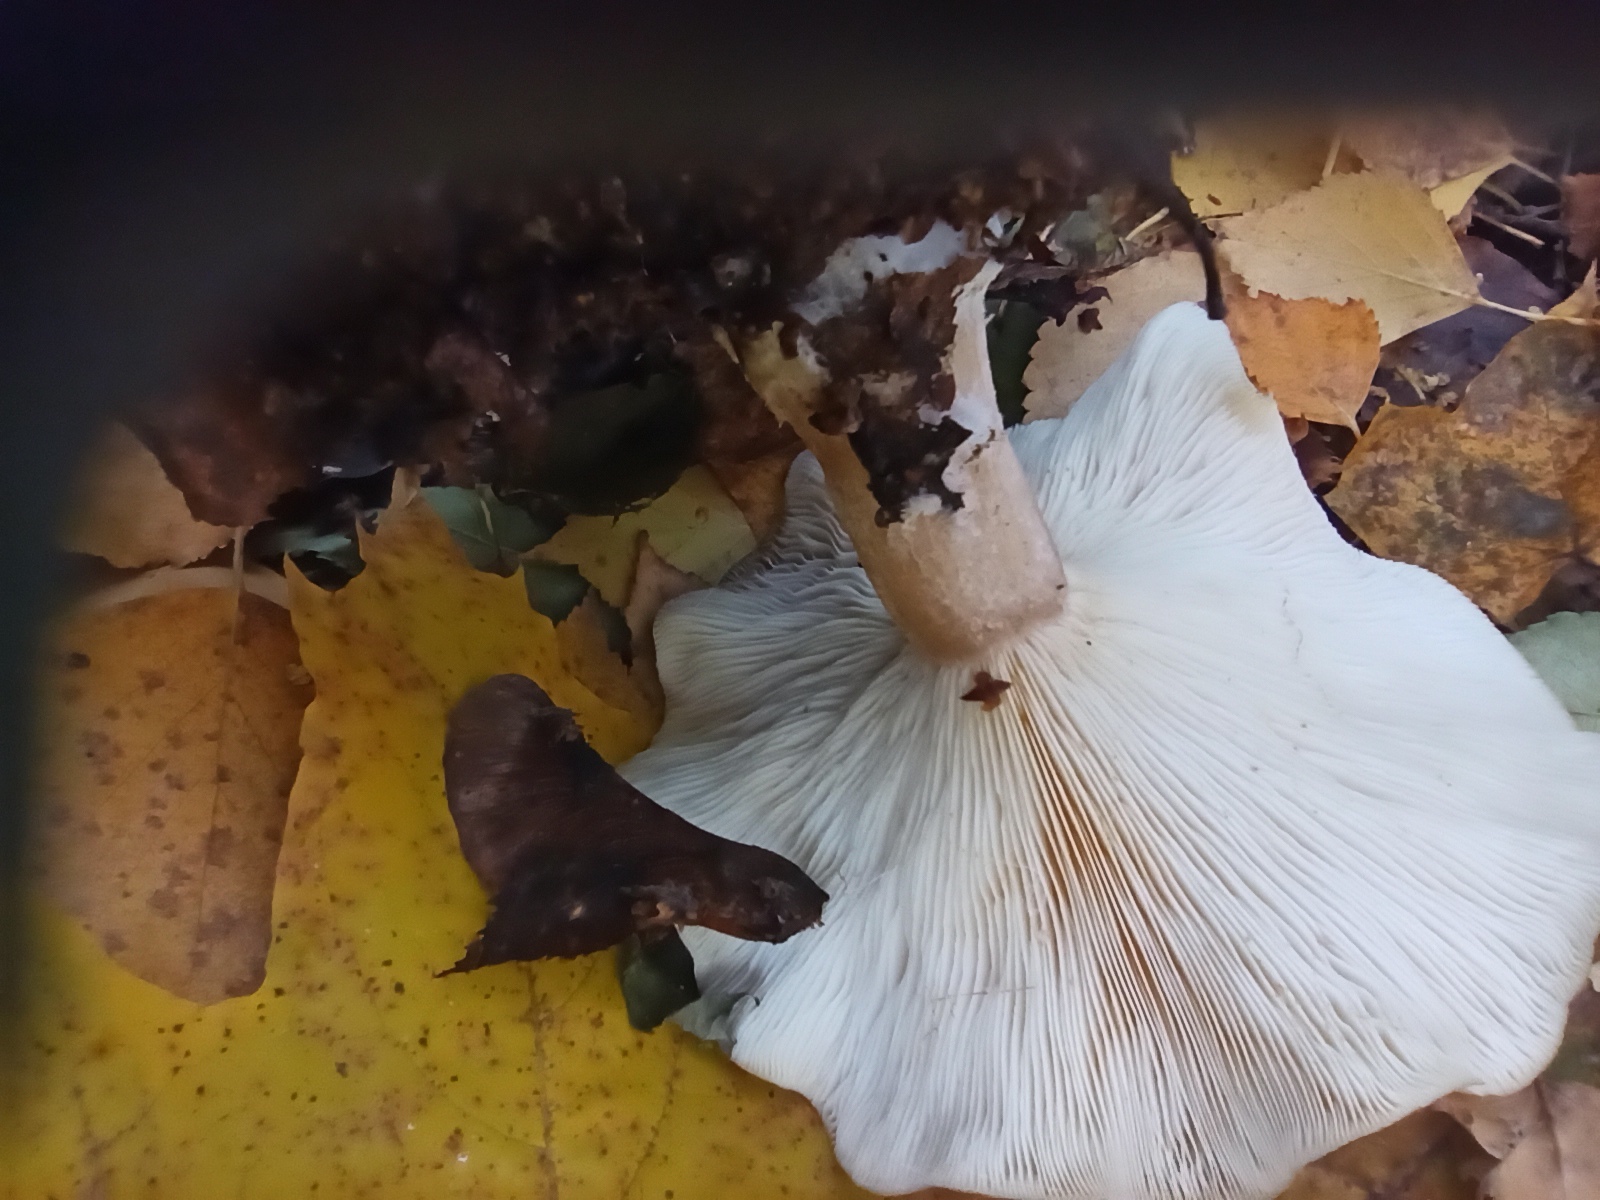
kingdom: Fungi
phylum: Basidiomycota
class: Agaricomycetes
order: Agaricales
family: Tricholomataceae
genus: Clitocybe
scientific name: Clitocybe nebularis
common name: Clouded agaric
